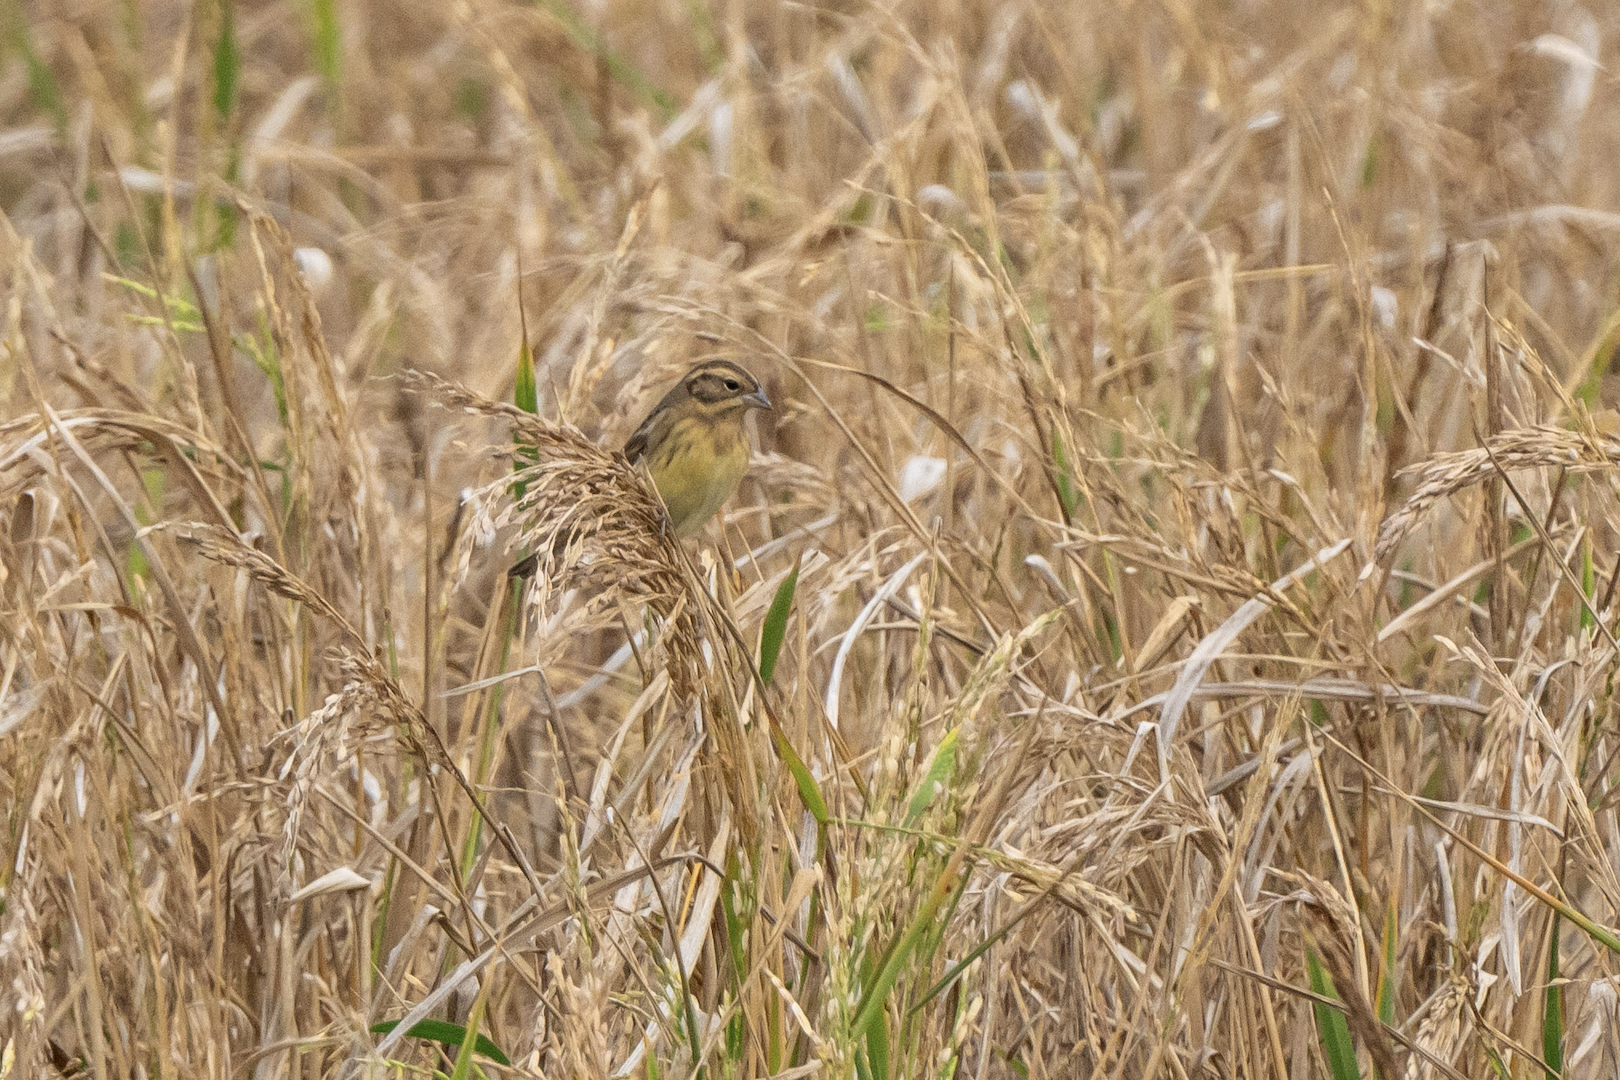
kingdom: Animalia
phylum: Chordata
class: Aves
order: Passeriformes
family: Emberizidae
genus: Emberiza
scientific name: Emberiza aureola
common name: Yellow-breasted bunting
